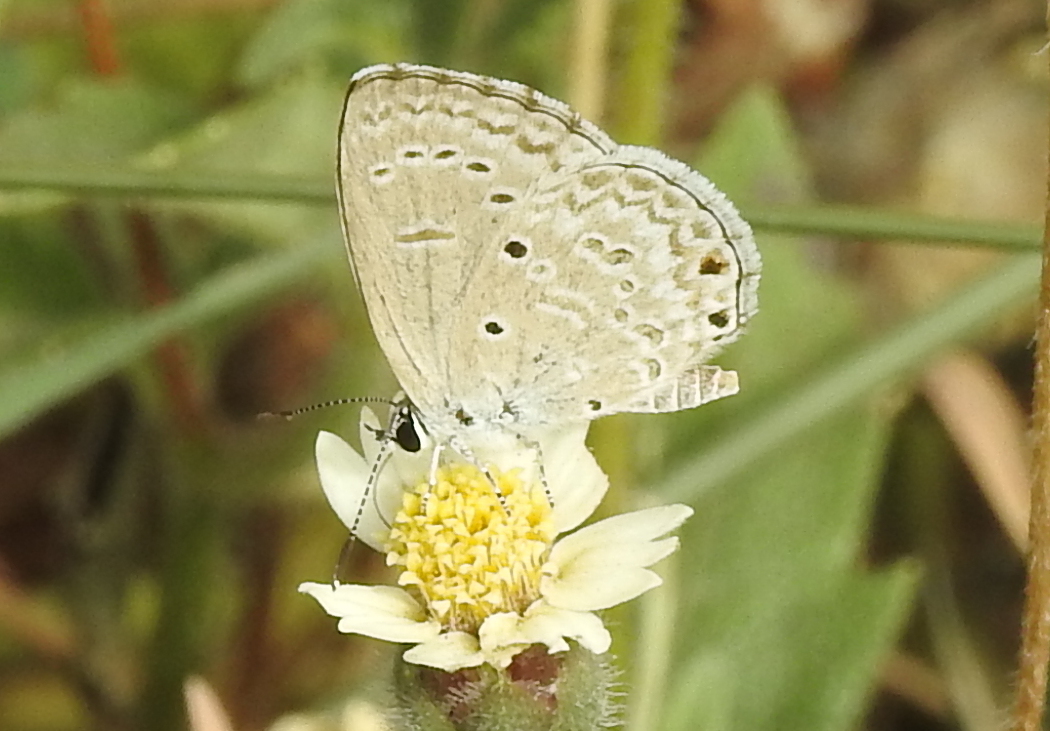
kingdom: Animalia
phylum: Arthropoda
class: Insecta
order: Lepidoptera
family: Lycaenidae
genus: Chilades
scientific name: Chilades laius
